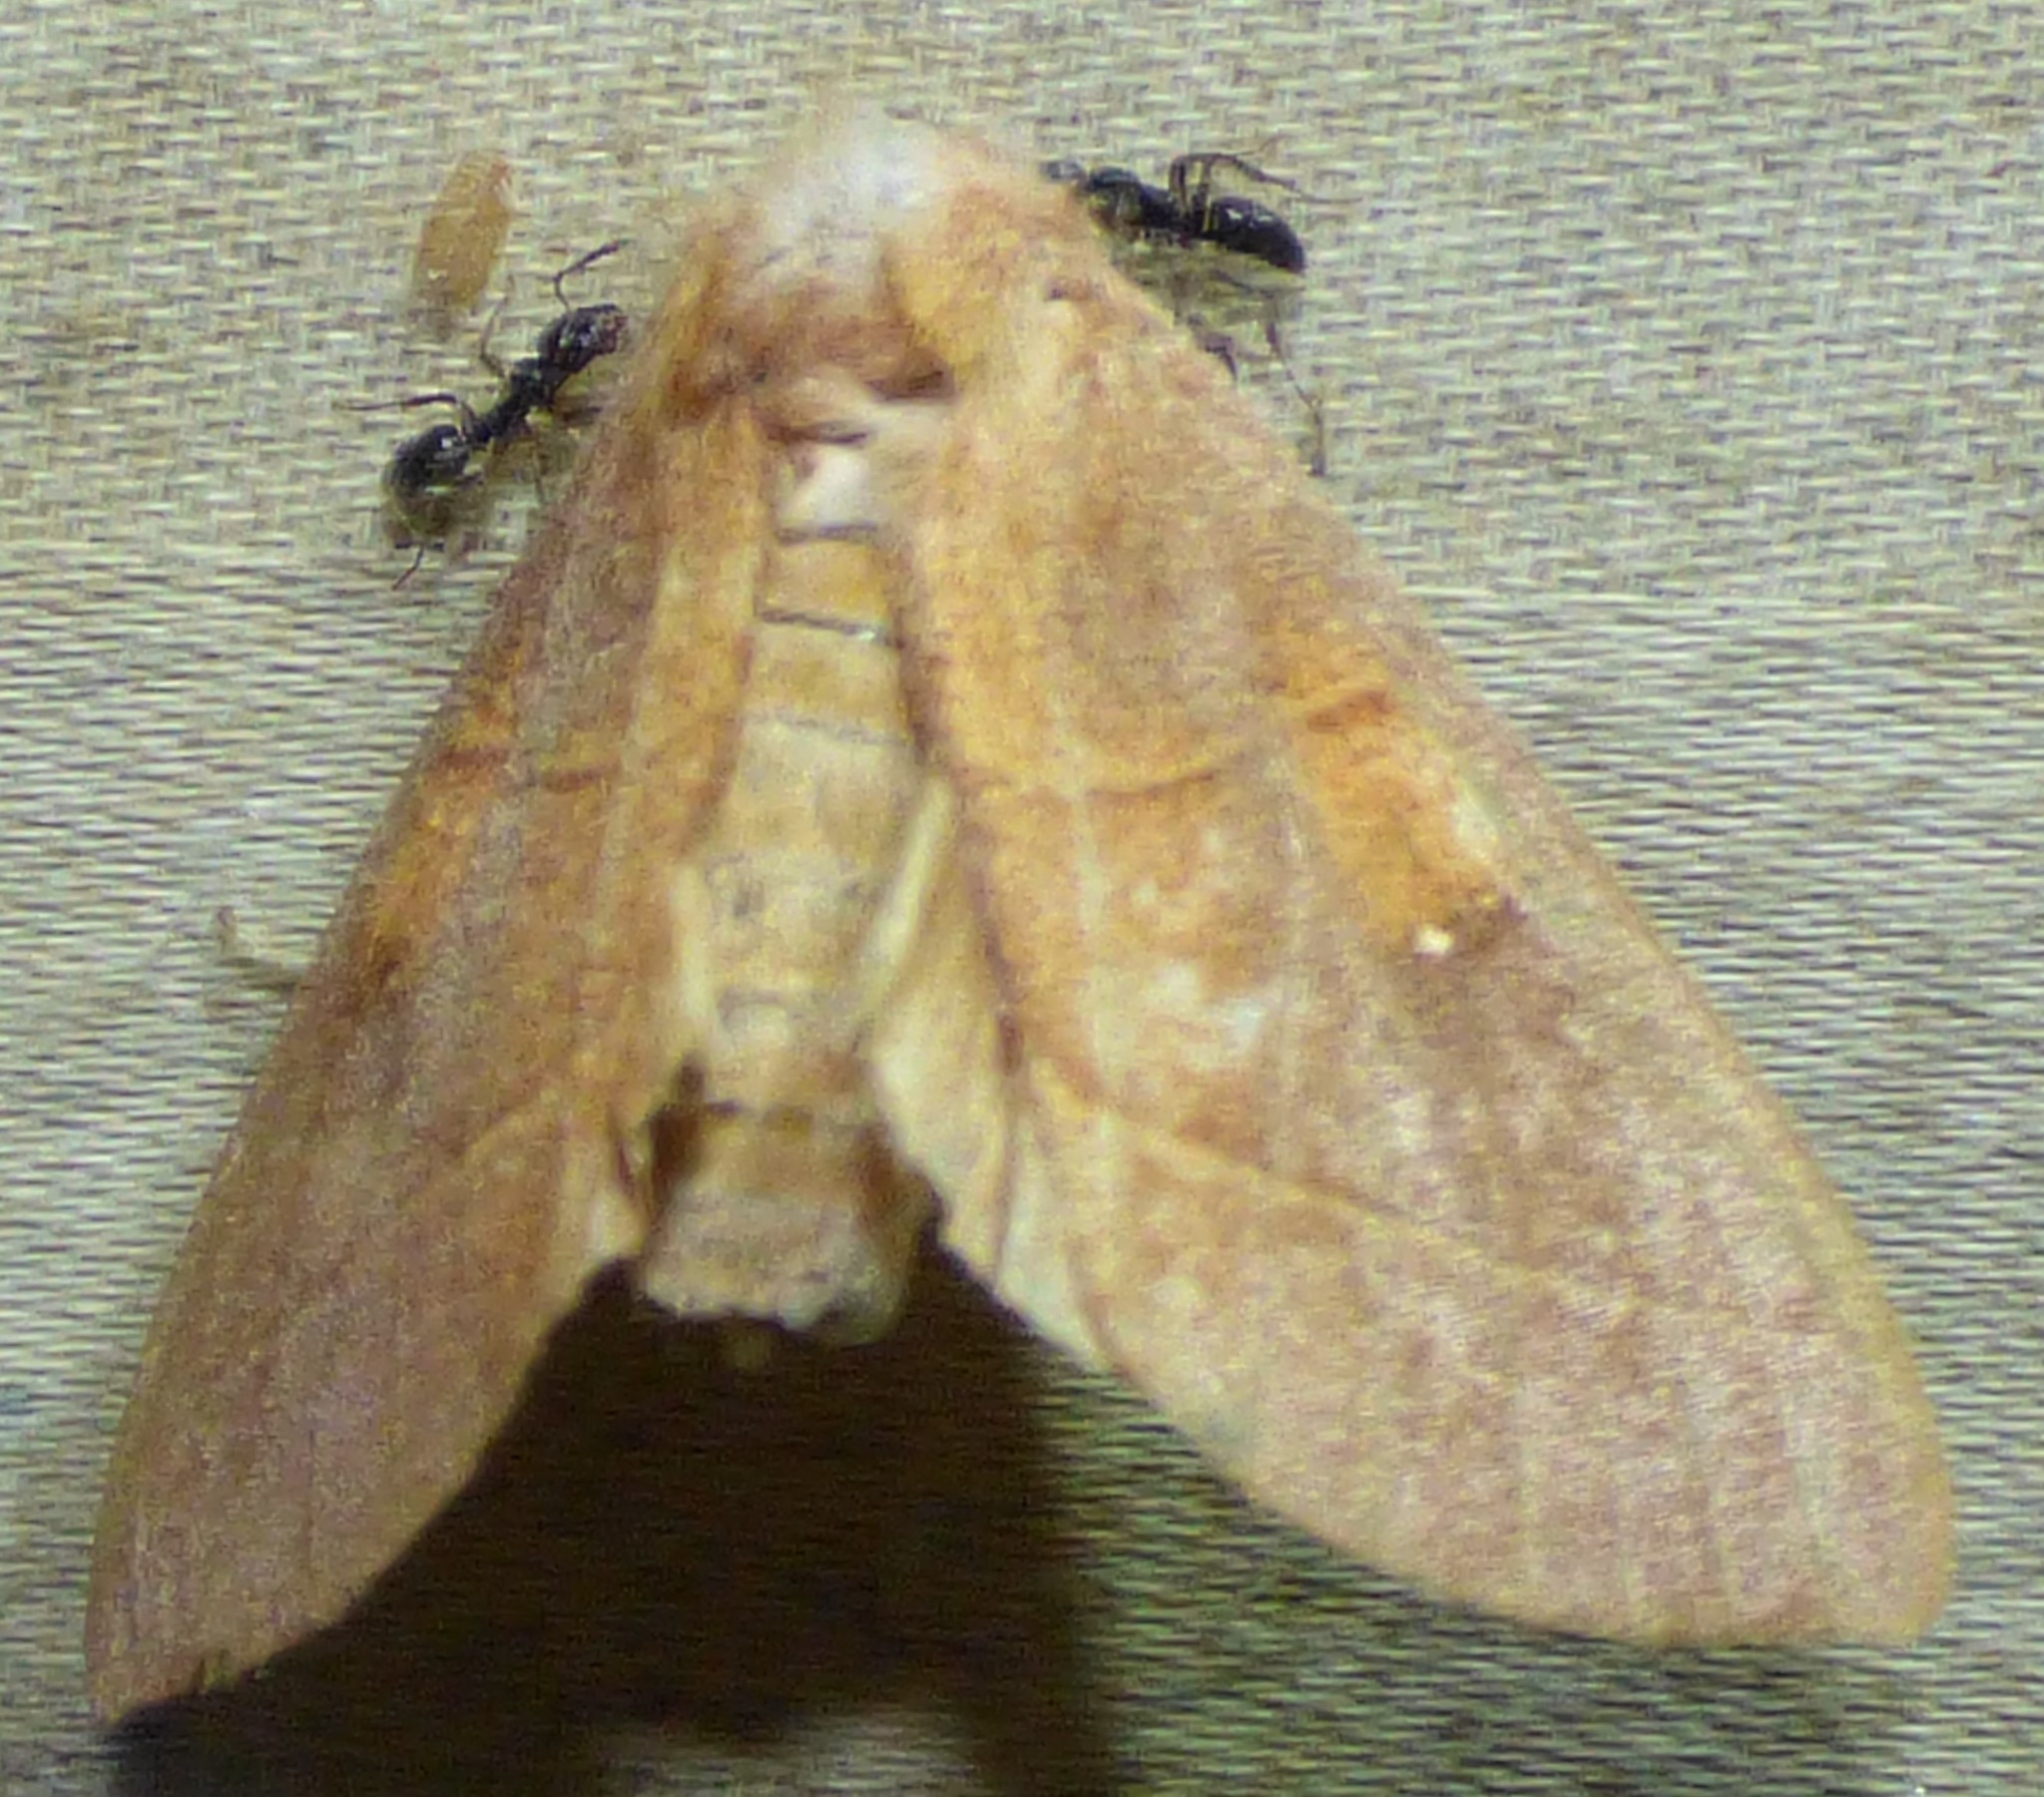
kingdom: Animalia
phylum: Arthropoda
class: Insecta
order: Lepidoptera
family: Notodontidae
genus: Nadata
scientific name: Nadata gibbosa
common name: White-dotted prominent
